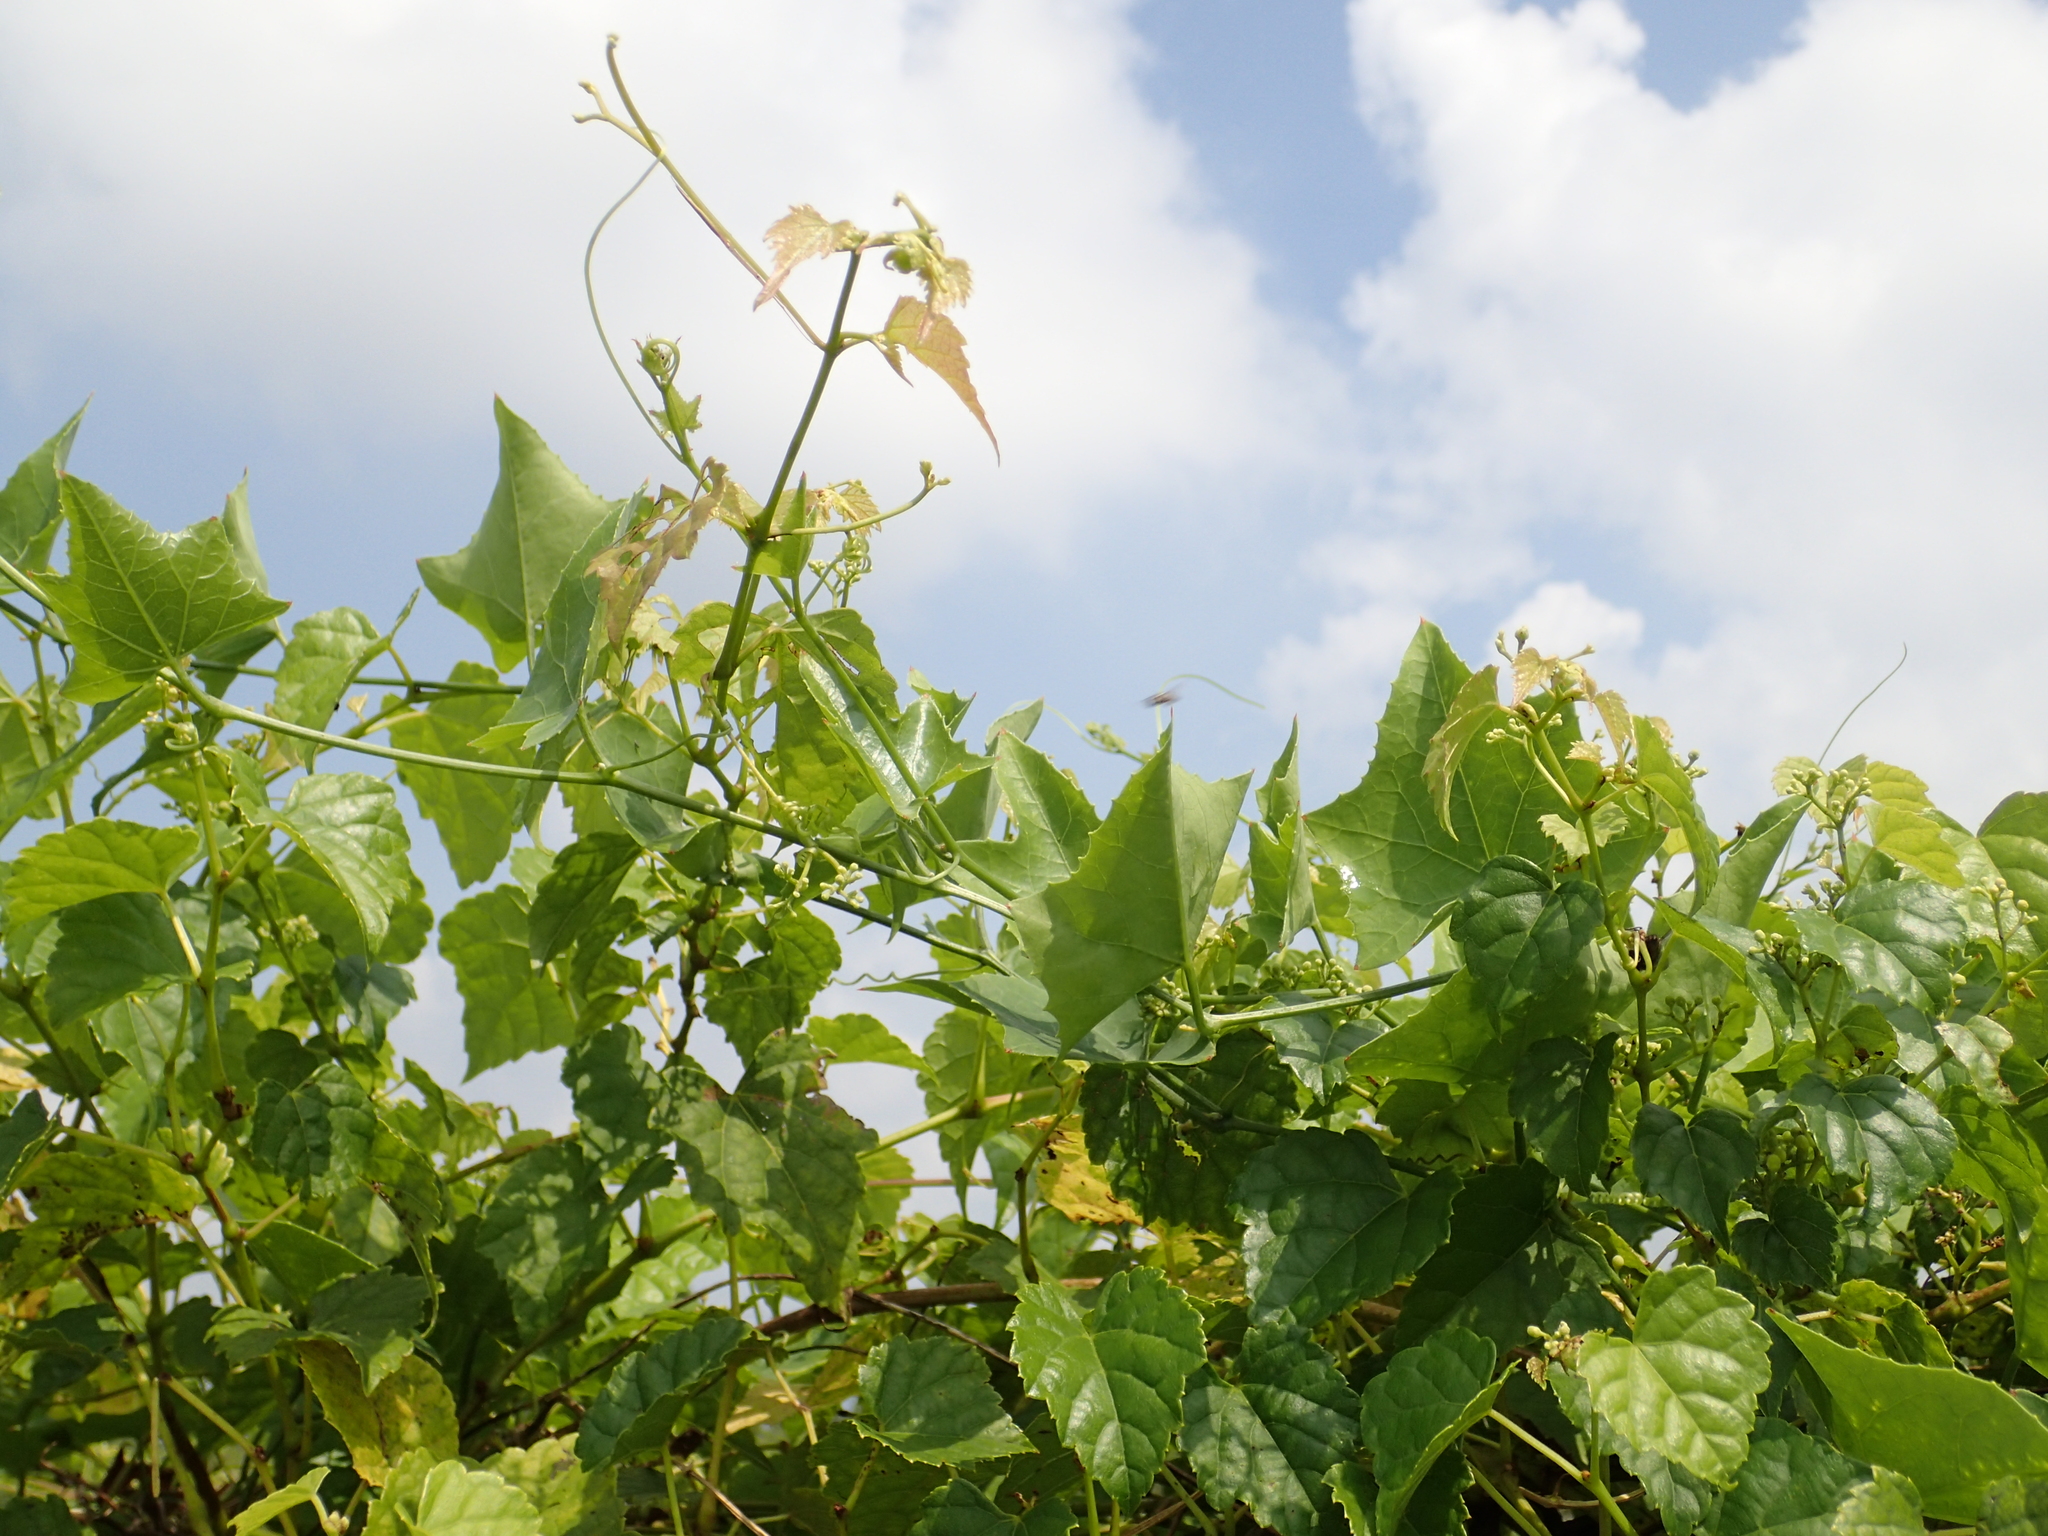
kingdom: Plantae
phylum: Tracheophyta
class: Magnoliopsida
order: Vitales
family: Vitaceae
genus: Ampelopsis
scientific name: Ampelopsis glandulosa
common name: Amur peppervine
